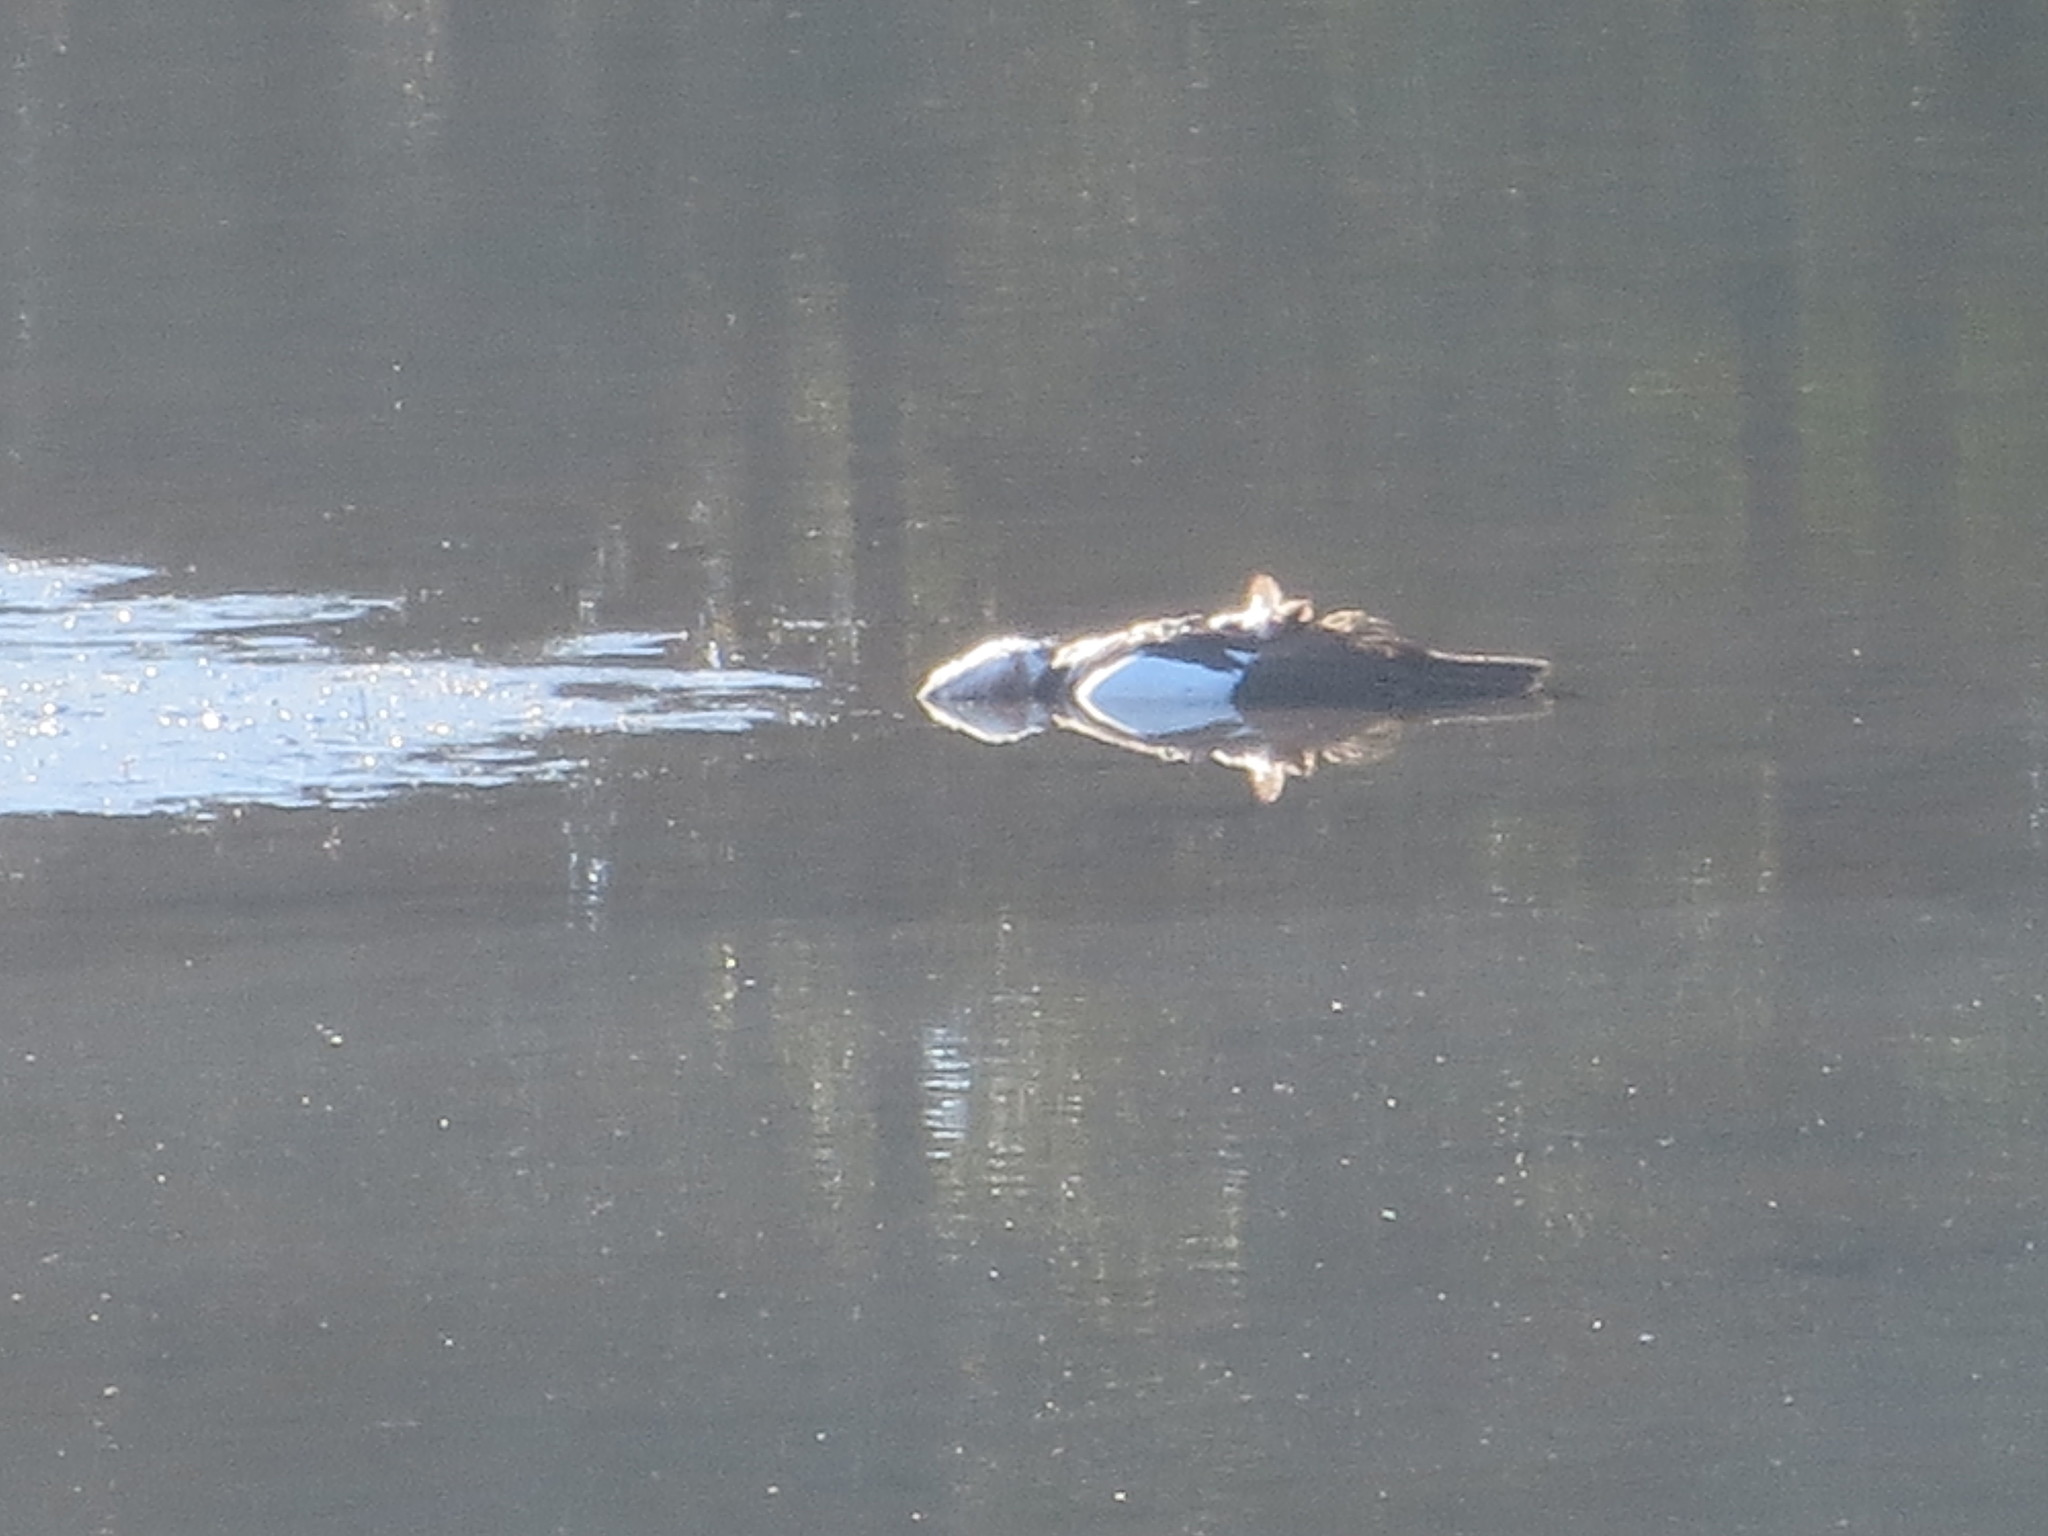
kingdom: Animalia
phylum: Chordata
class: Aves
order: Anseriformes
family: Anatidae
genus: Cairina
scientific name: Cairina moschata
